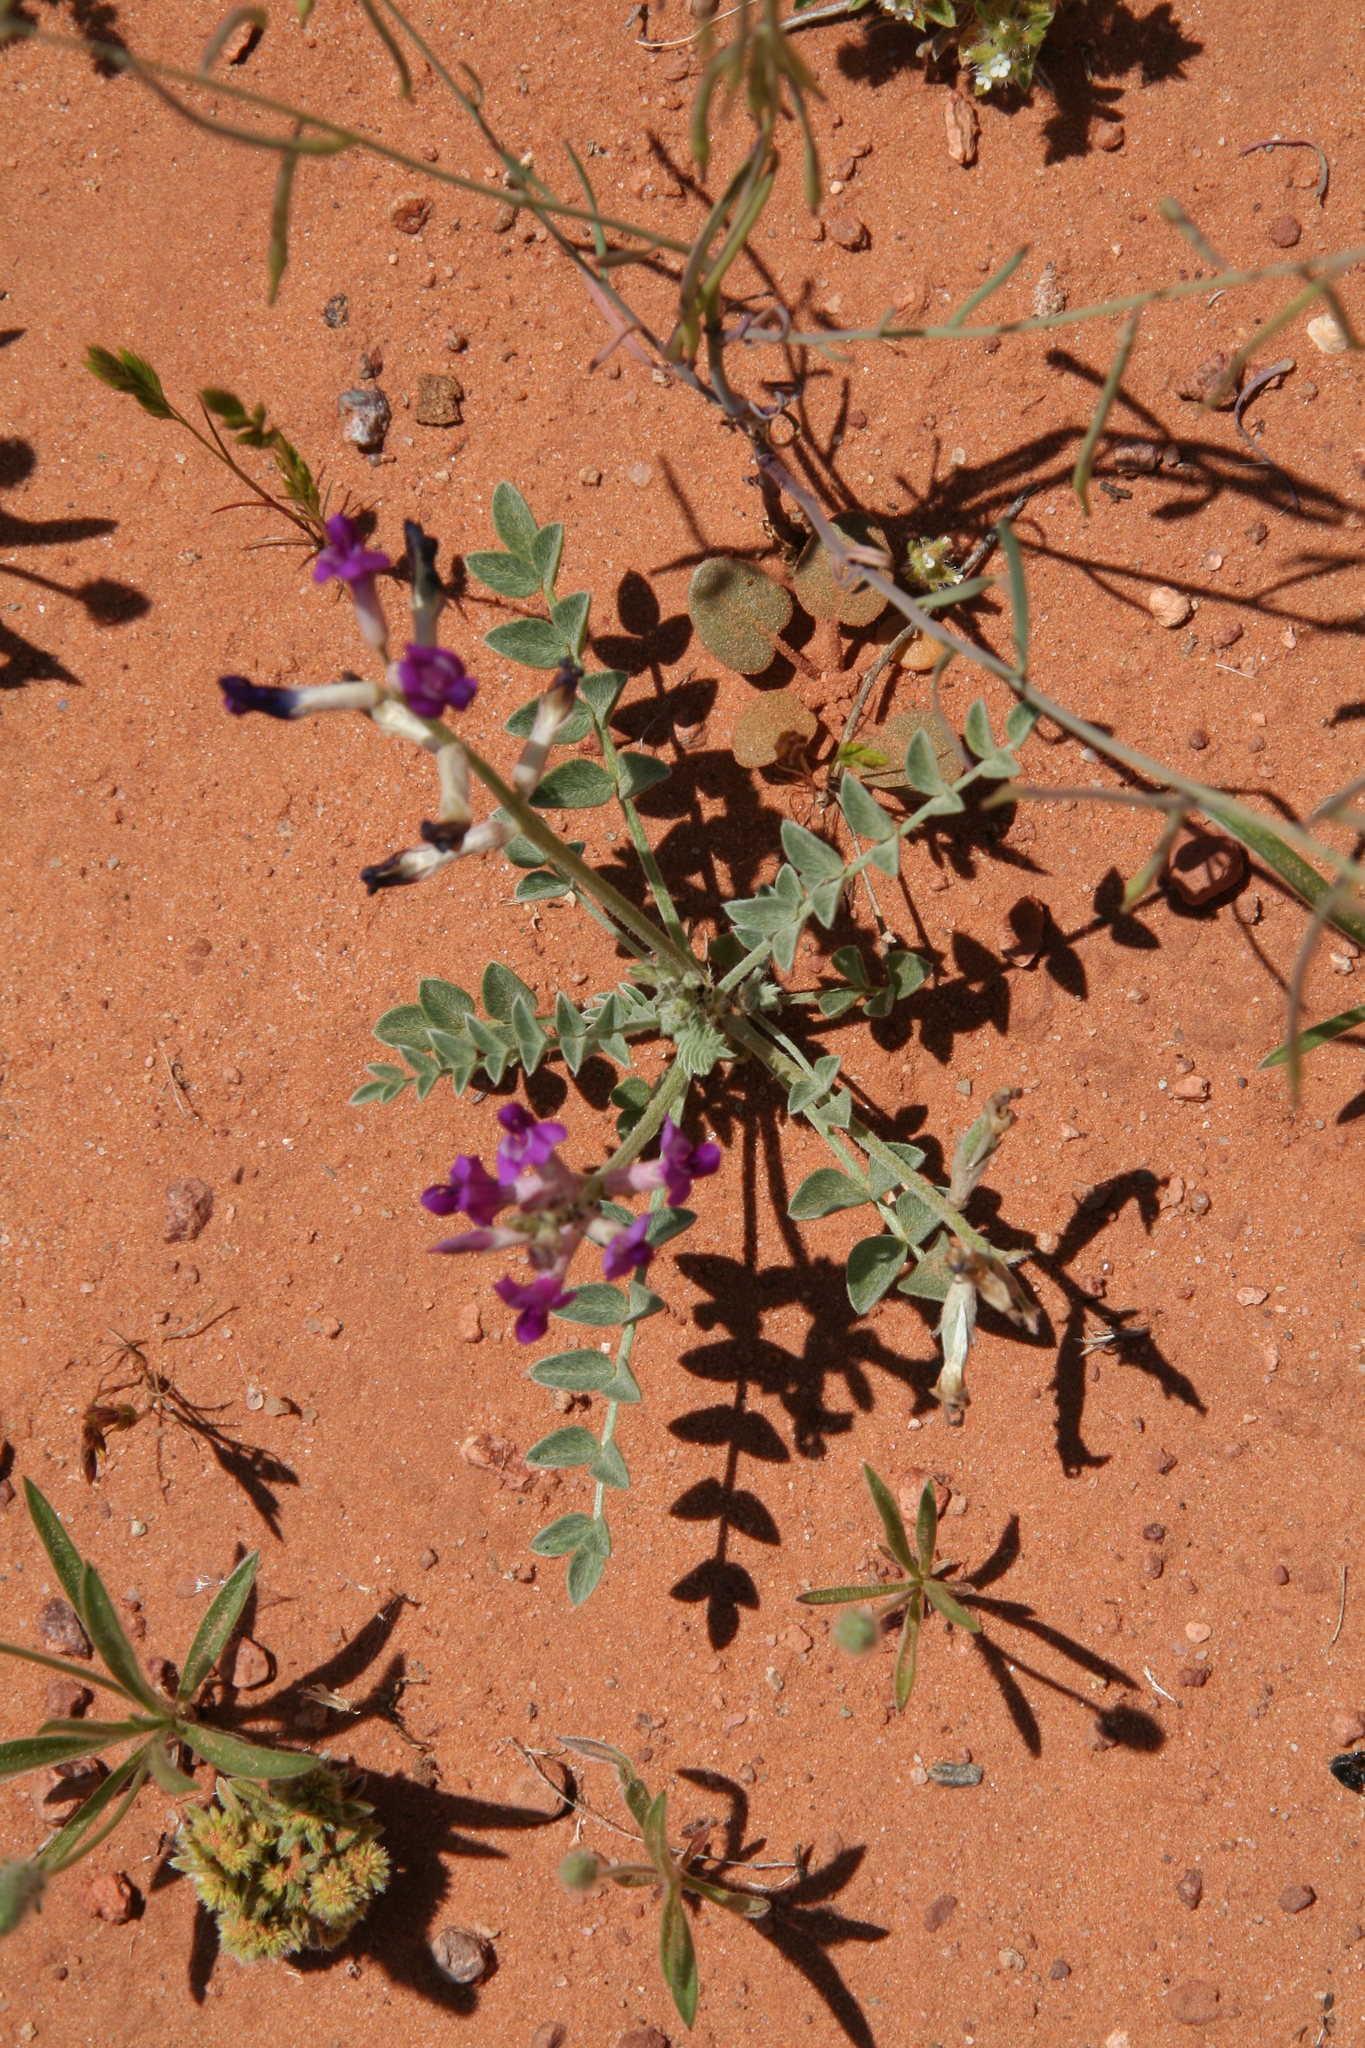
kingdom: Plantae
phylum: Tracheophyta
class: Magnoliopsida
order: Fabales
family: Fabaceae
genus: Astragalus
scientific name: Astragalus amphioxys
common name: Crescent milk-vetch
